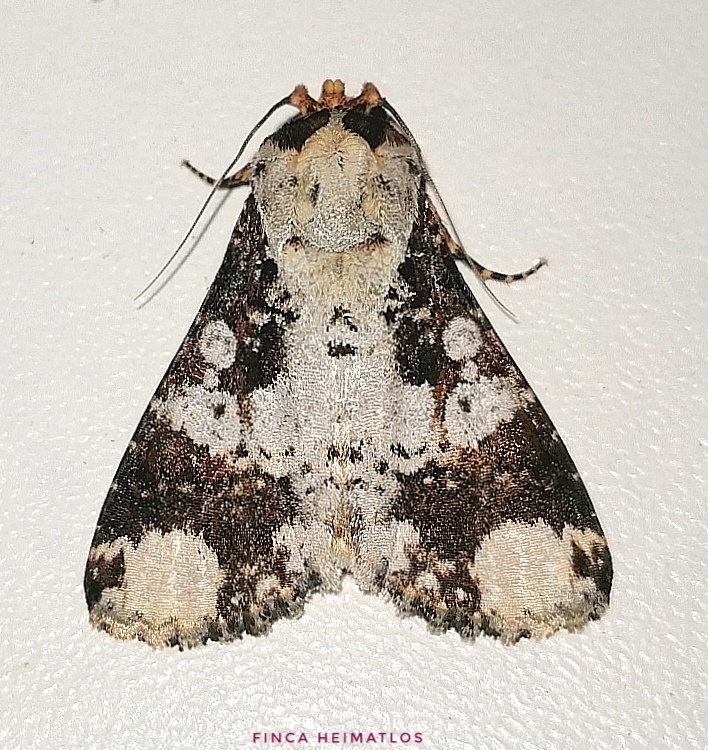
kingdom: Animalia
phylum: Arthropoda
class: Insecta
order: Lepidoptera
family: Noctuidae
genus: Condica
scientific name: Condica mimica
